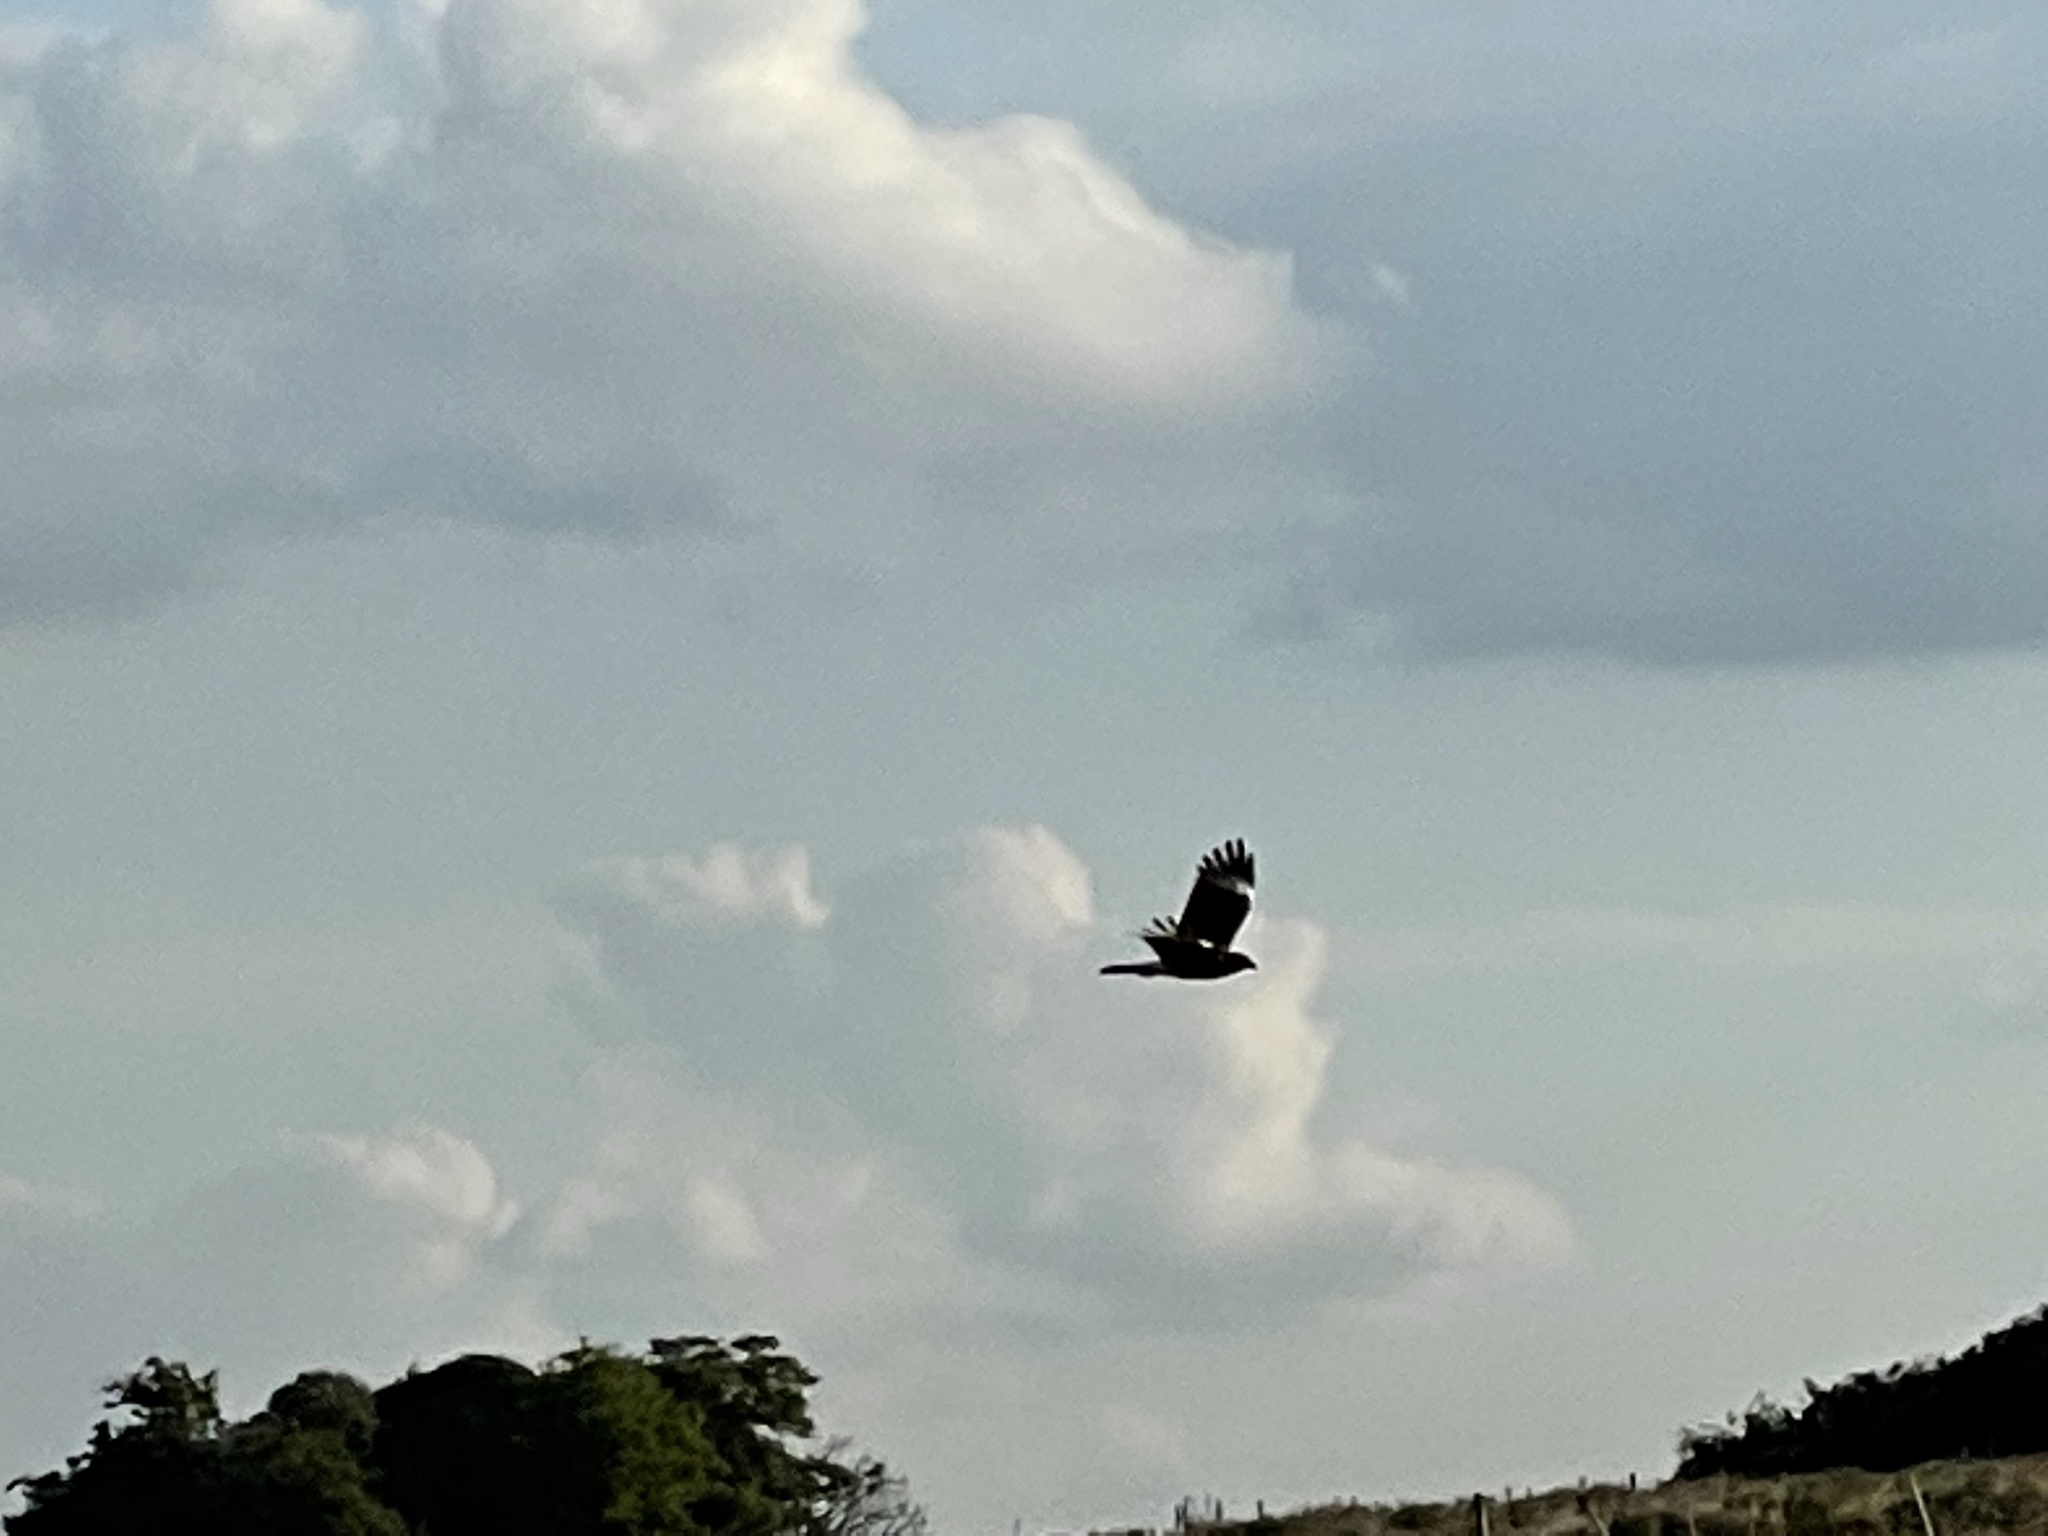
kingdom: Animalia
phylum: Chordata
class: Aves
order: Falconiformes
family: Falconidae
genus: Caracara
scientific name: Caracara plancus
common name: Southern caracara
